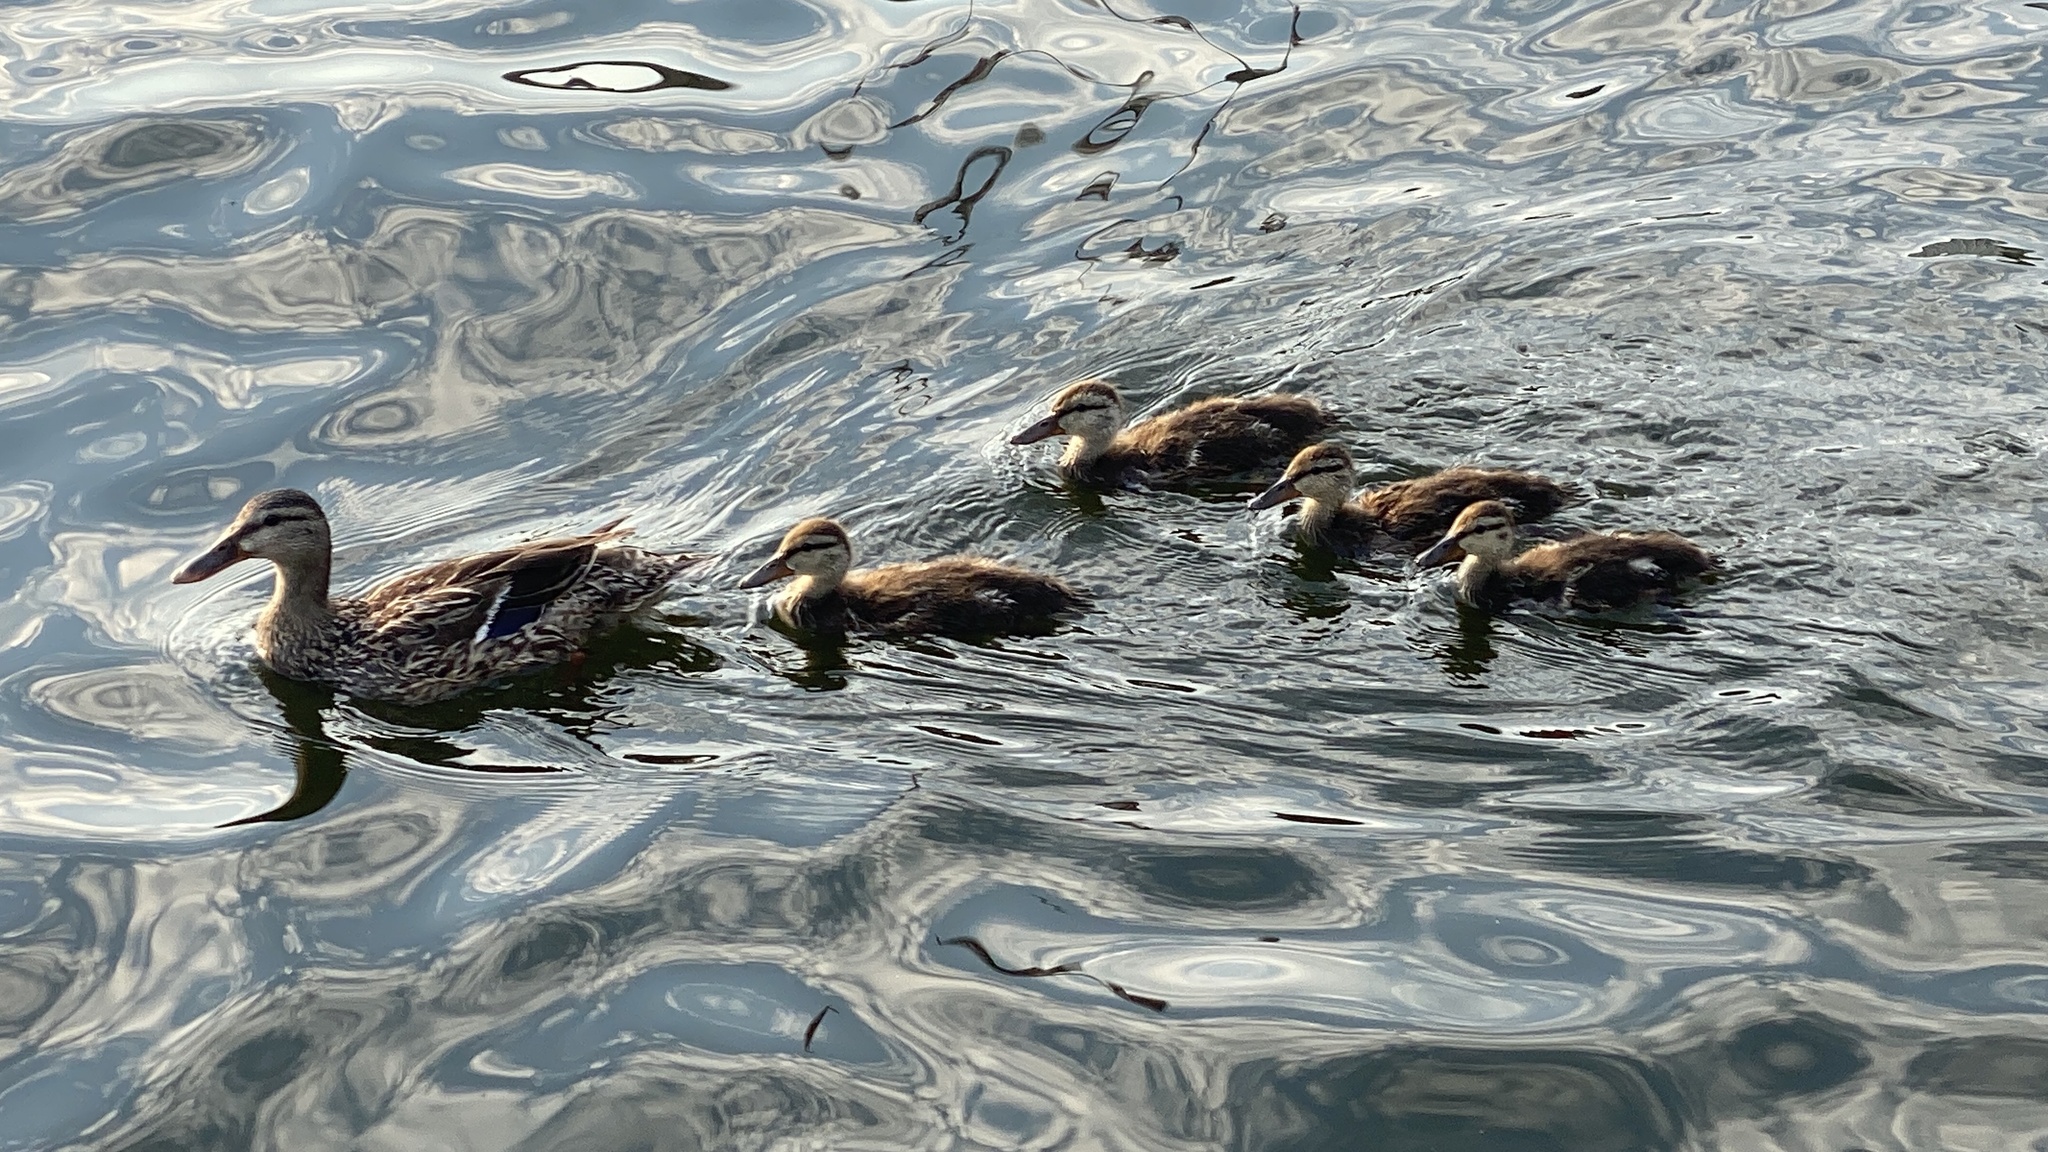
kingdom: Animalia
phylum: Chordata
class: Aves
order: Anseriformes
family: Anatidae
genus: Anas
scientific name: Anas platyrhynchos
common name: Mallard
